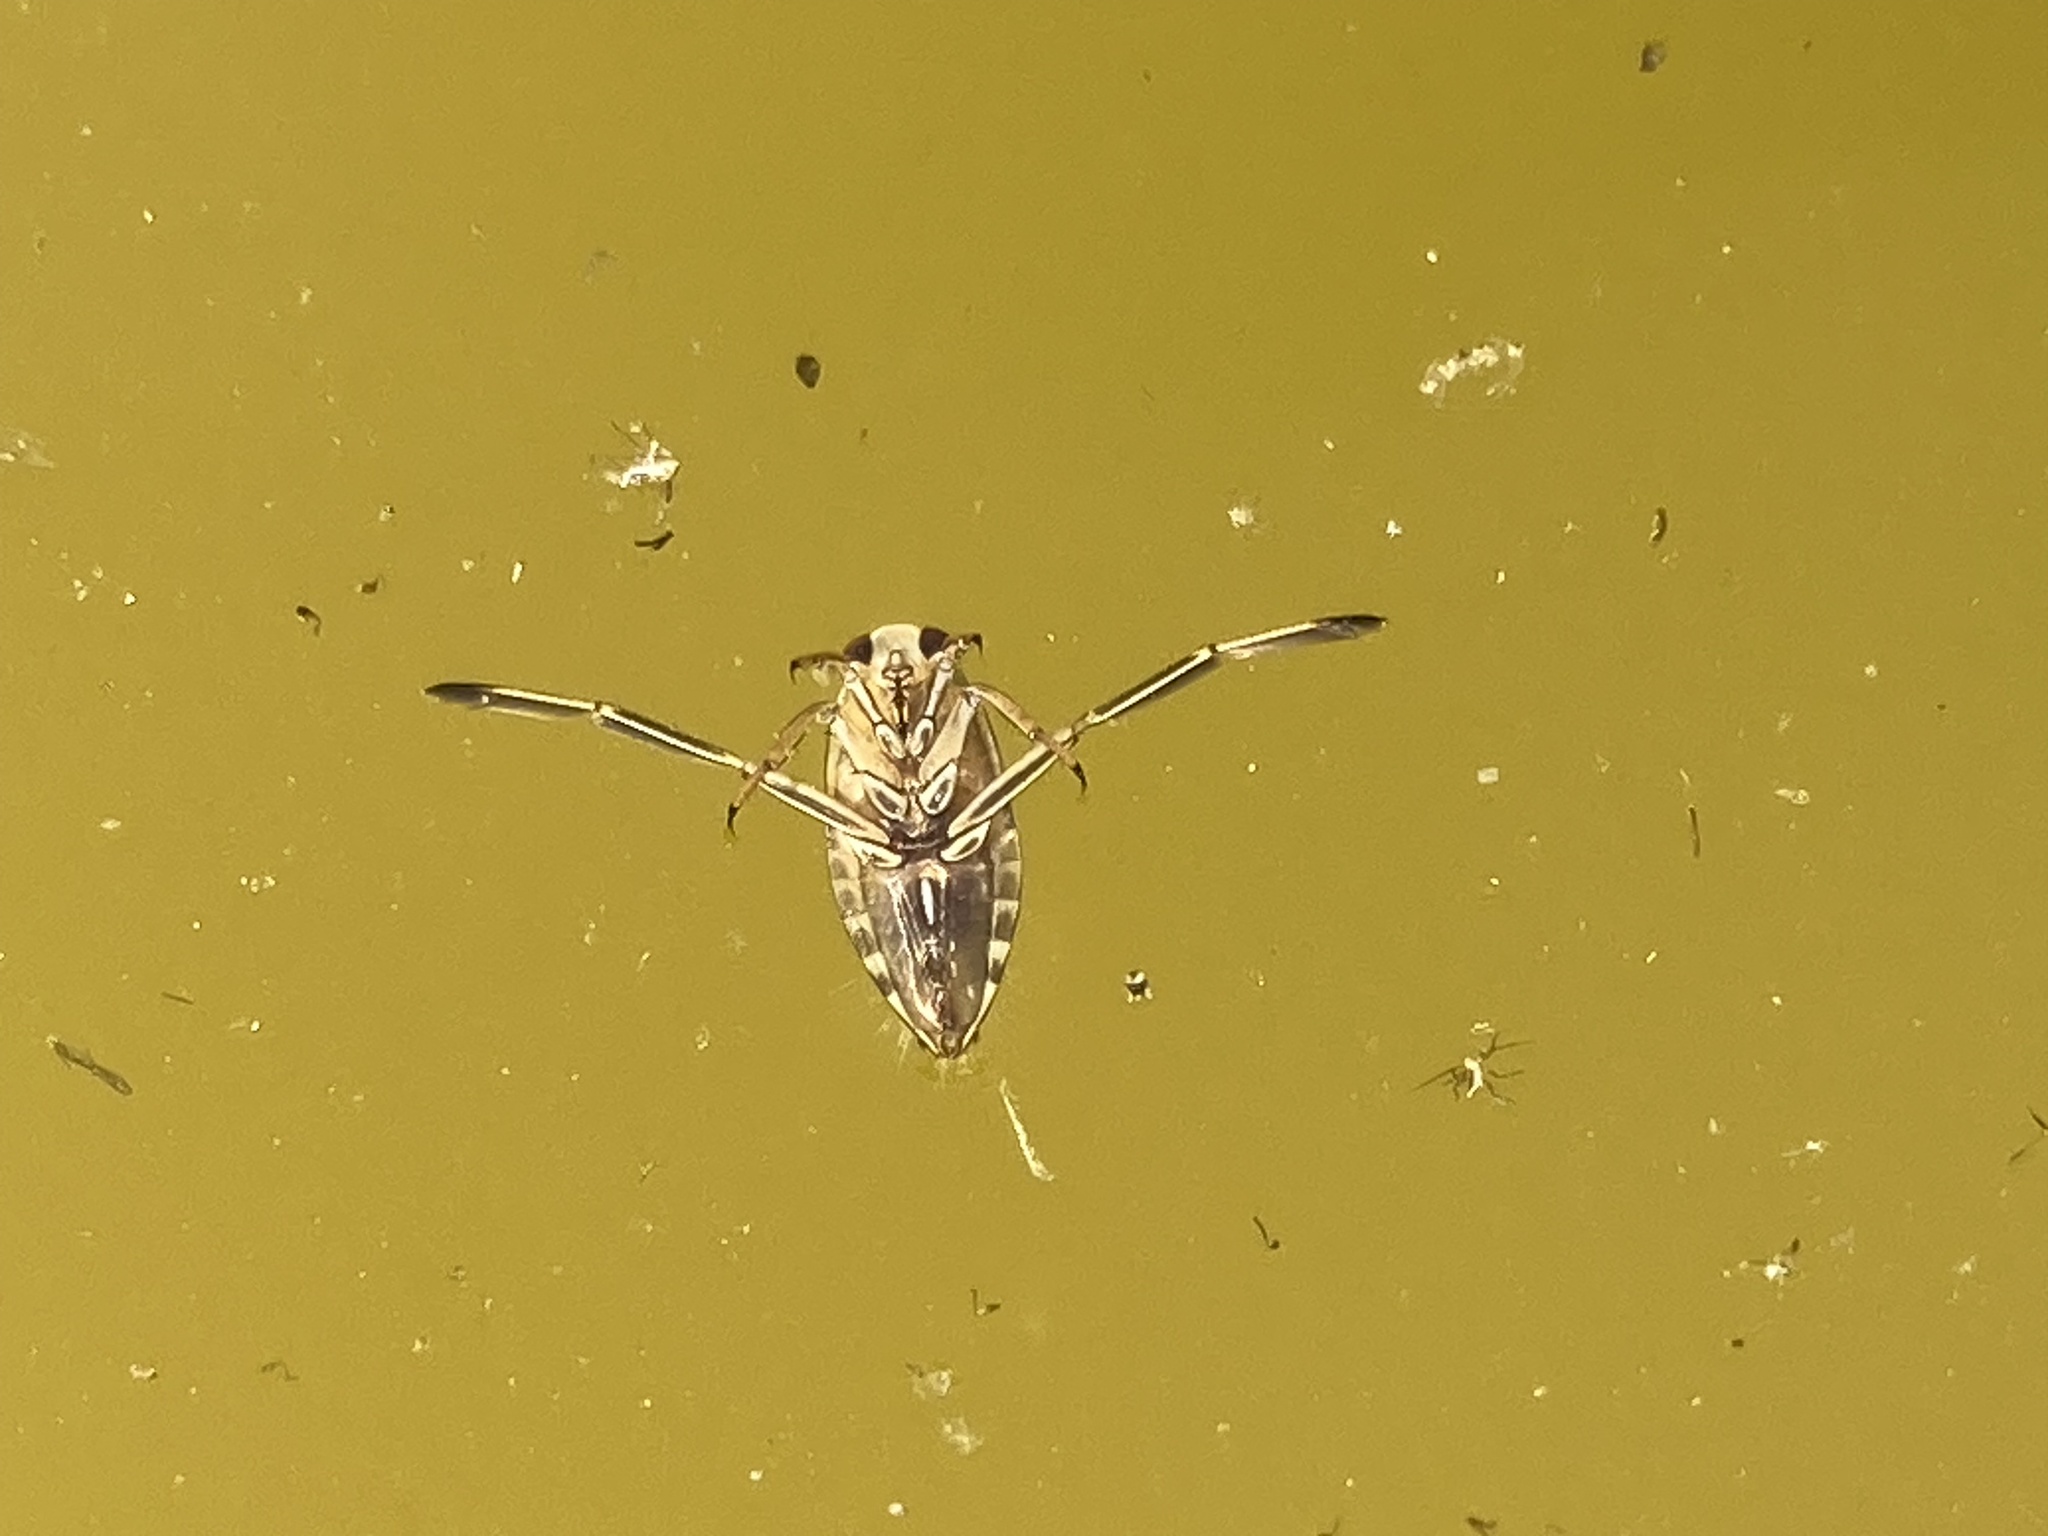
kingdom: Animalia
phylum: Arthropoda
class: Insecta
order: Hemiptera
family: Notonectidae
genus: Notonecta
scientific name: Notonecta
